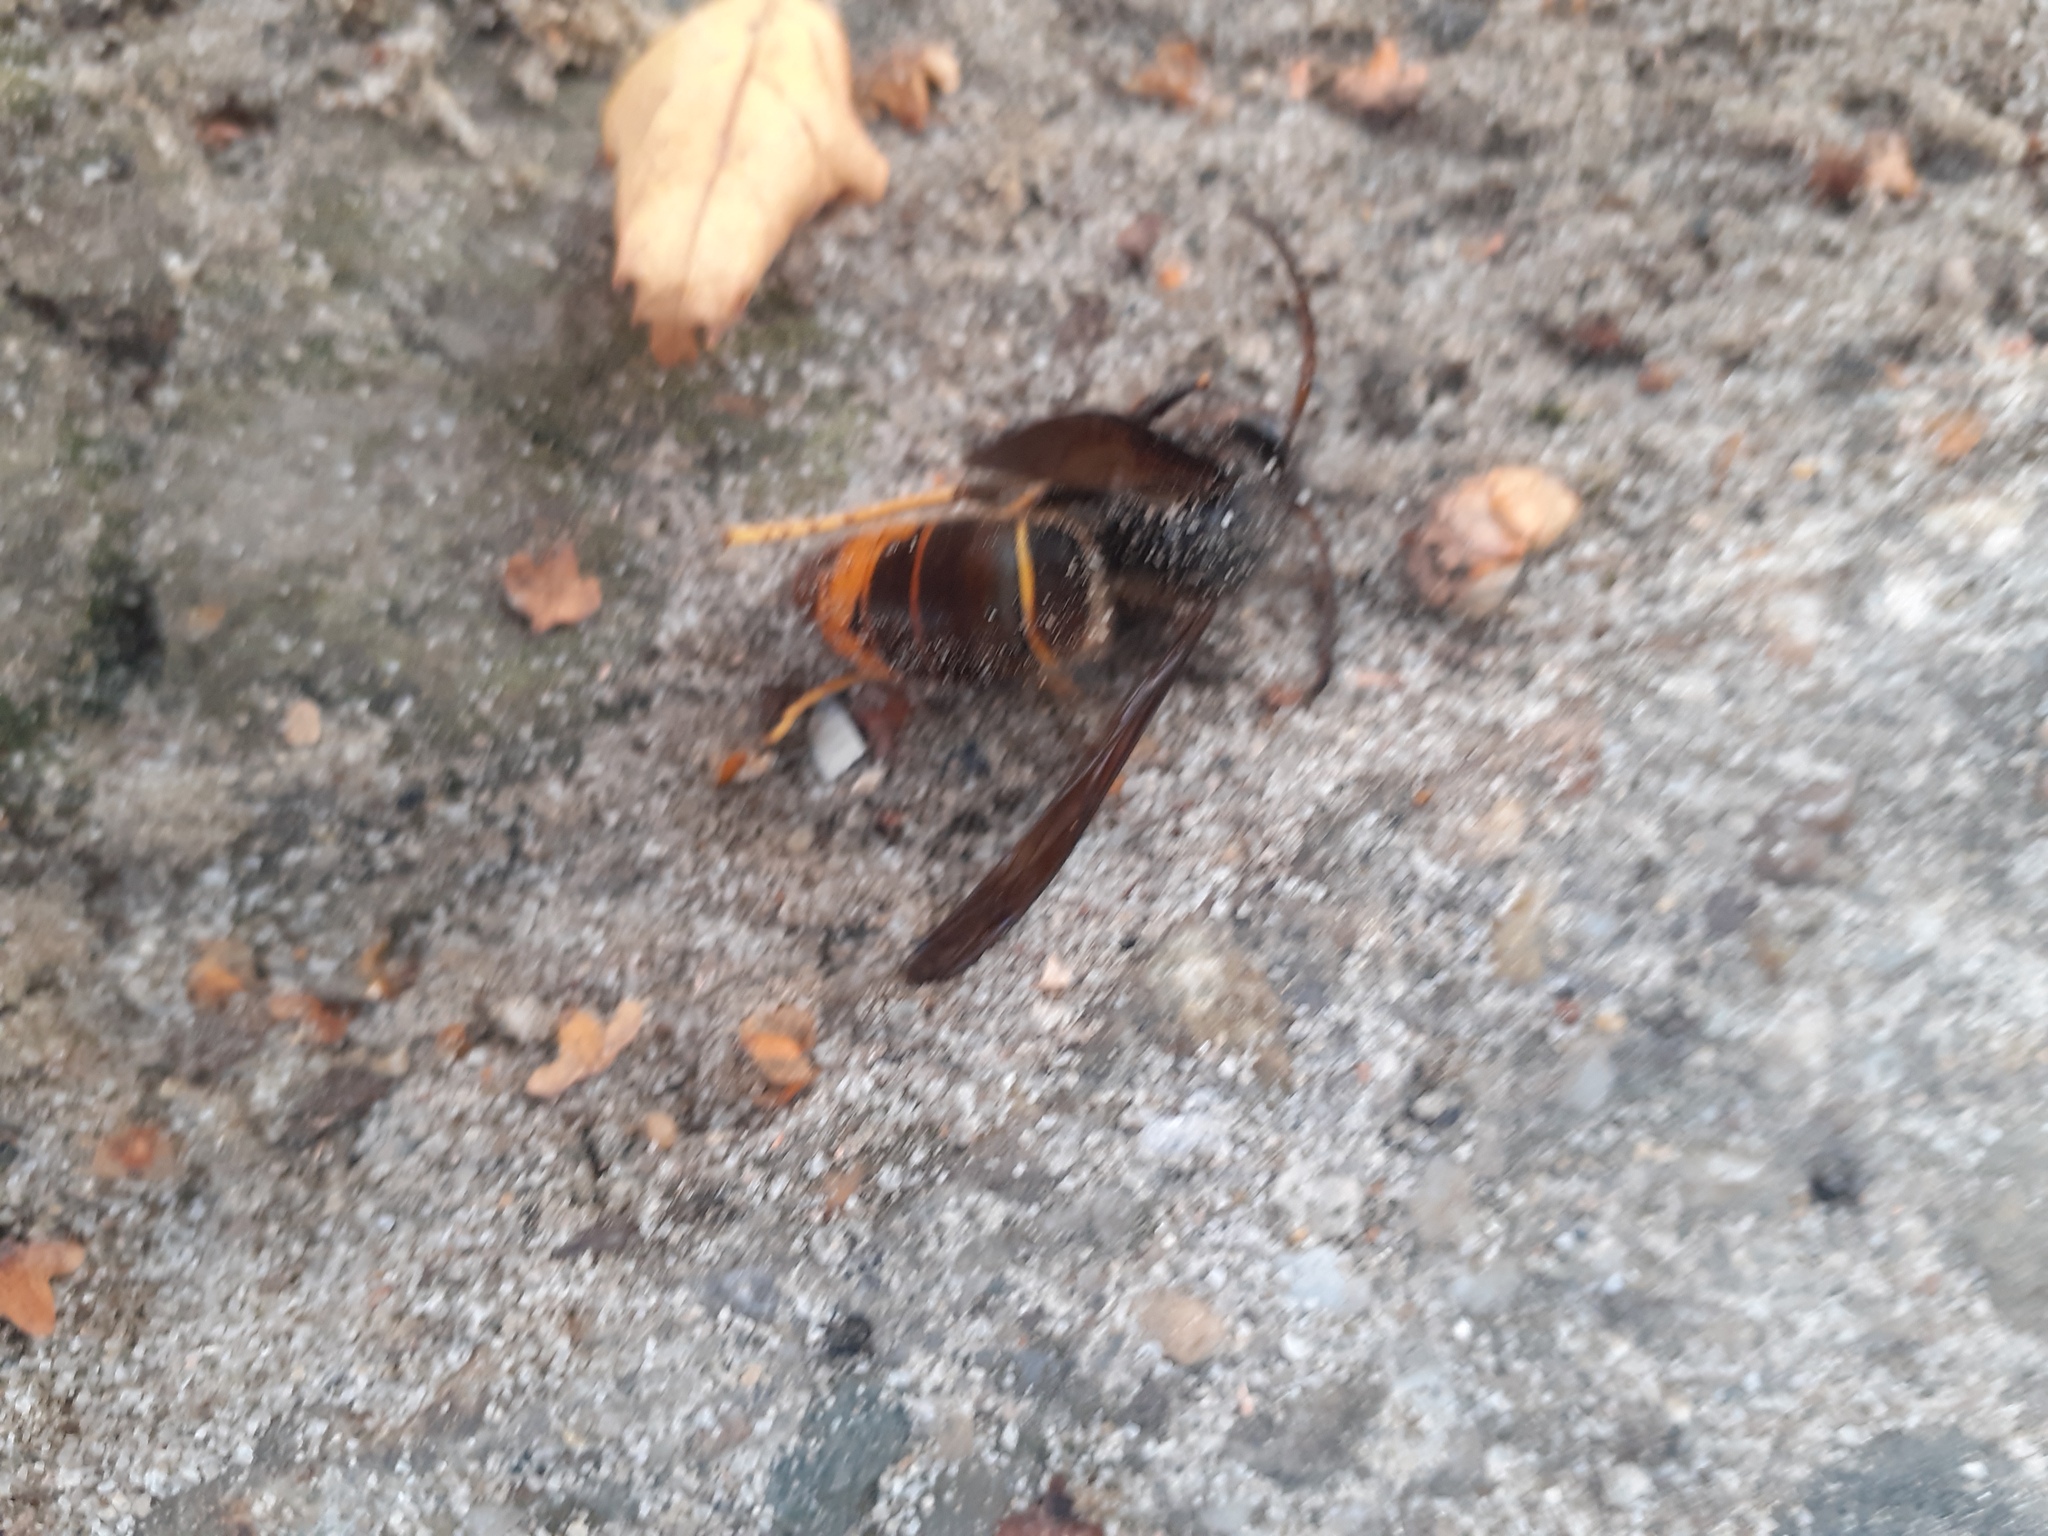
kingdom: Animalia
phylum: Arthropoda
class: Insecta
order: Hymenoptera
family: Vespidae
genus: Vespa
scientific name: Vespa velutina
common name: Asian hornet
